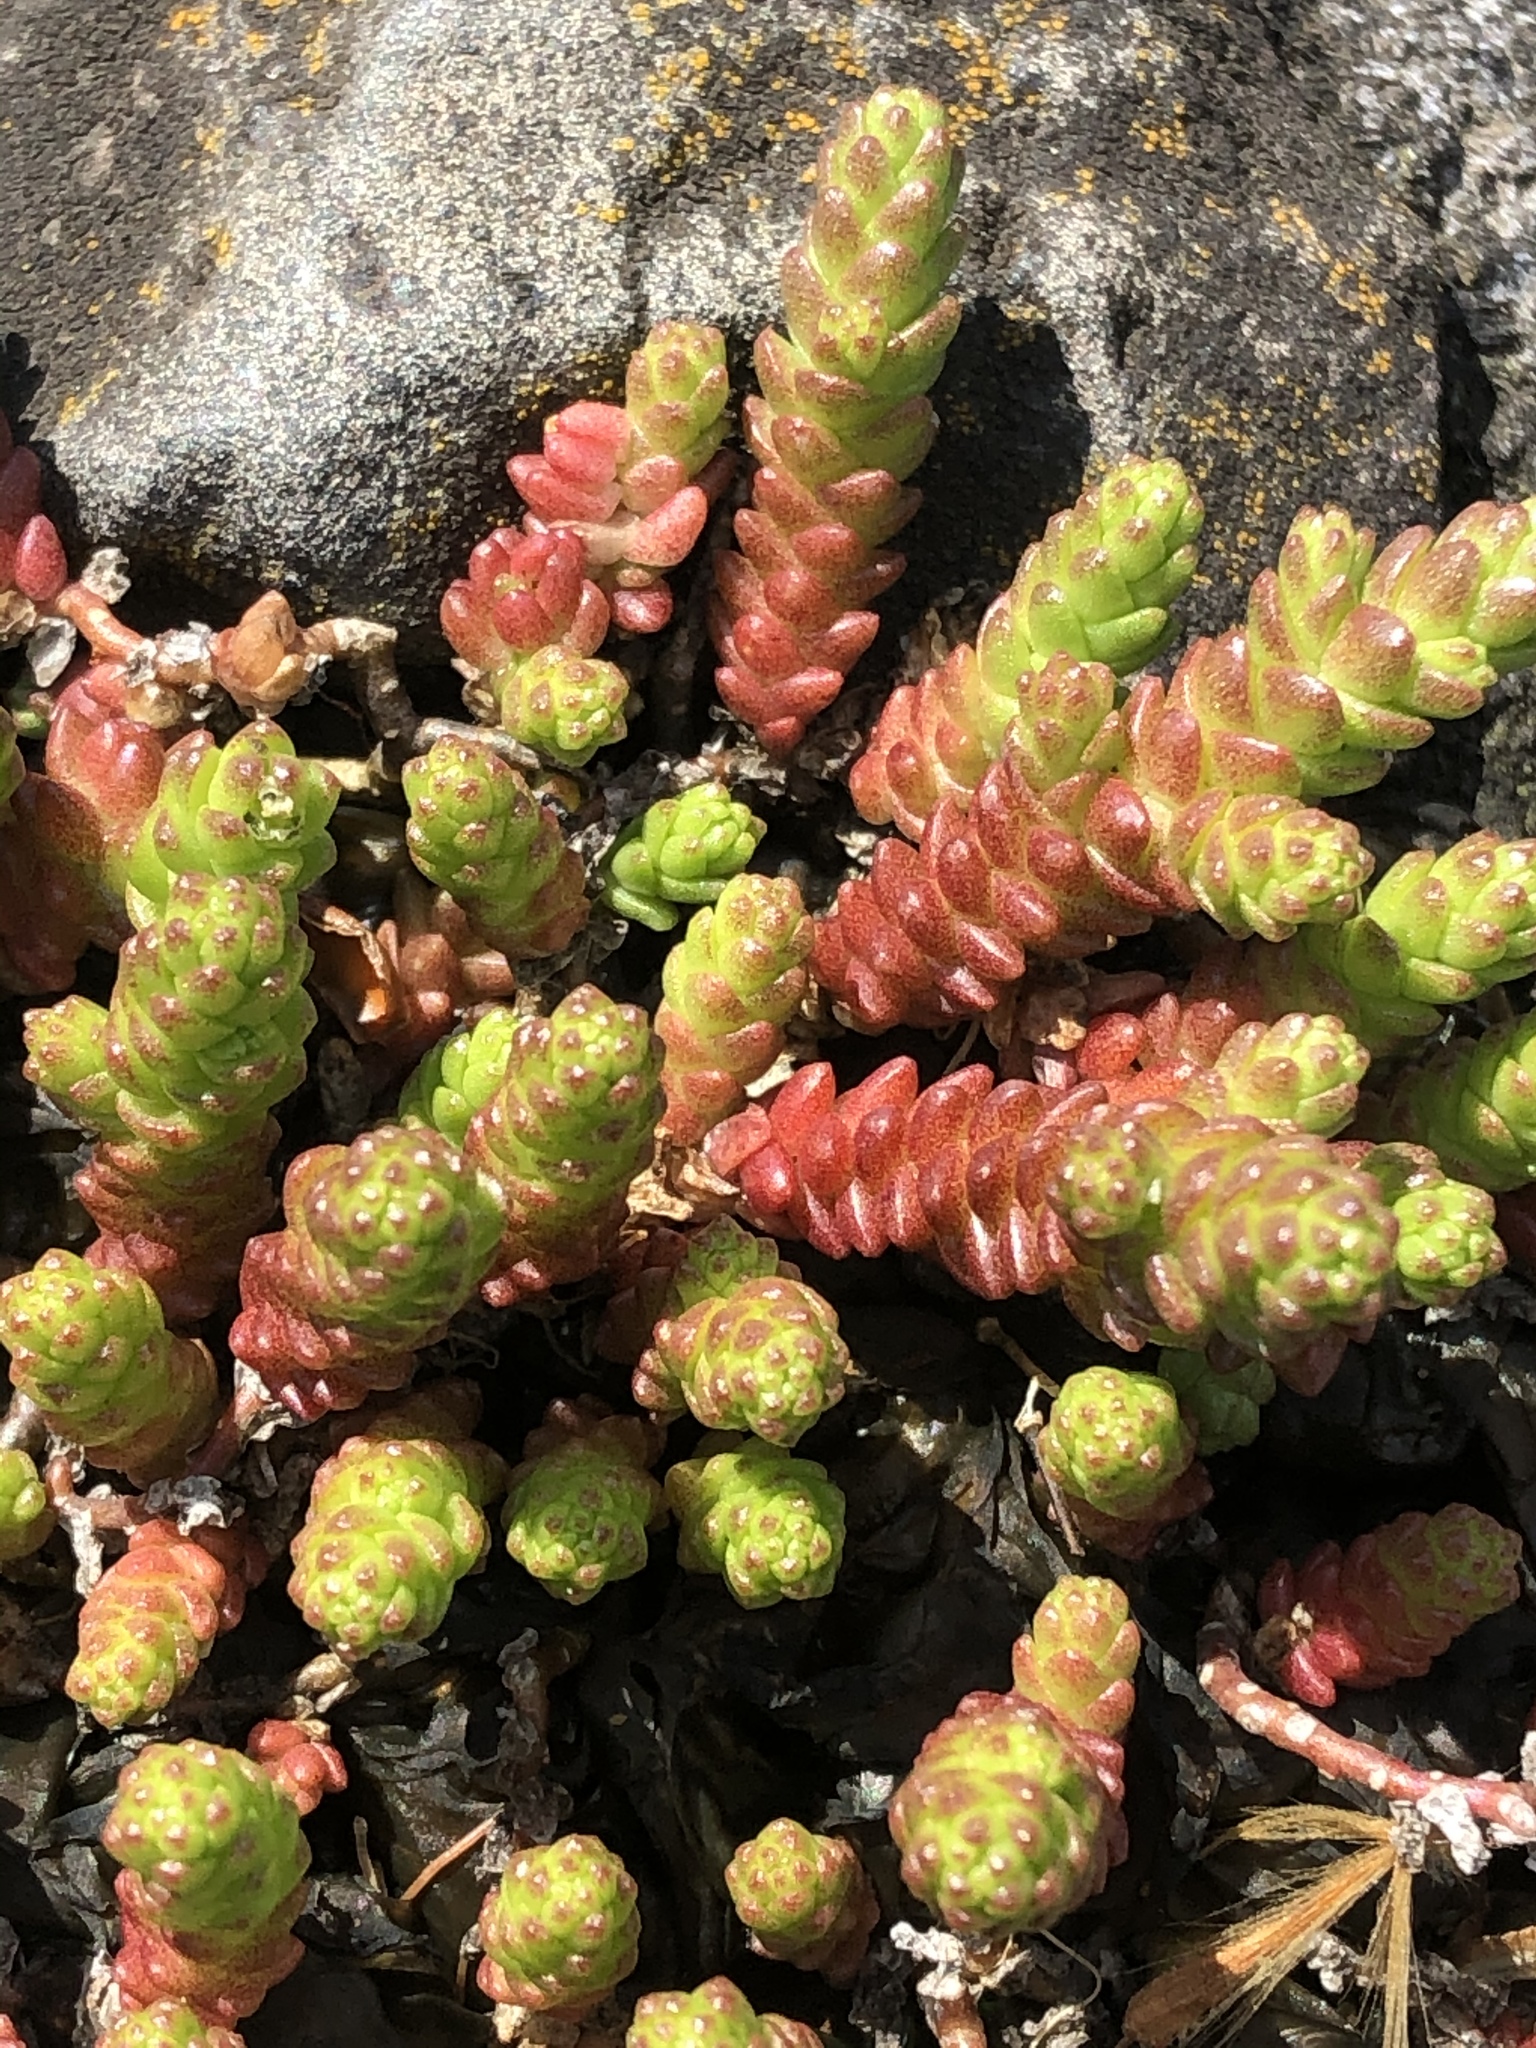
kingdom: Plantae
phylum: Tracheophyta
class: Magnoliopsida
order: Saxifragales
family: Crassulaceae
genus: Sedum
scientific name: Sedum acre
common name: Biting stonecrop
